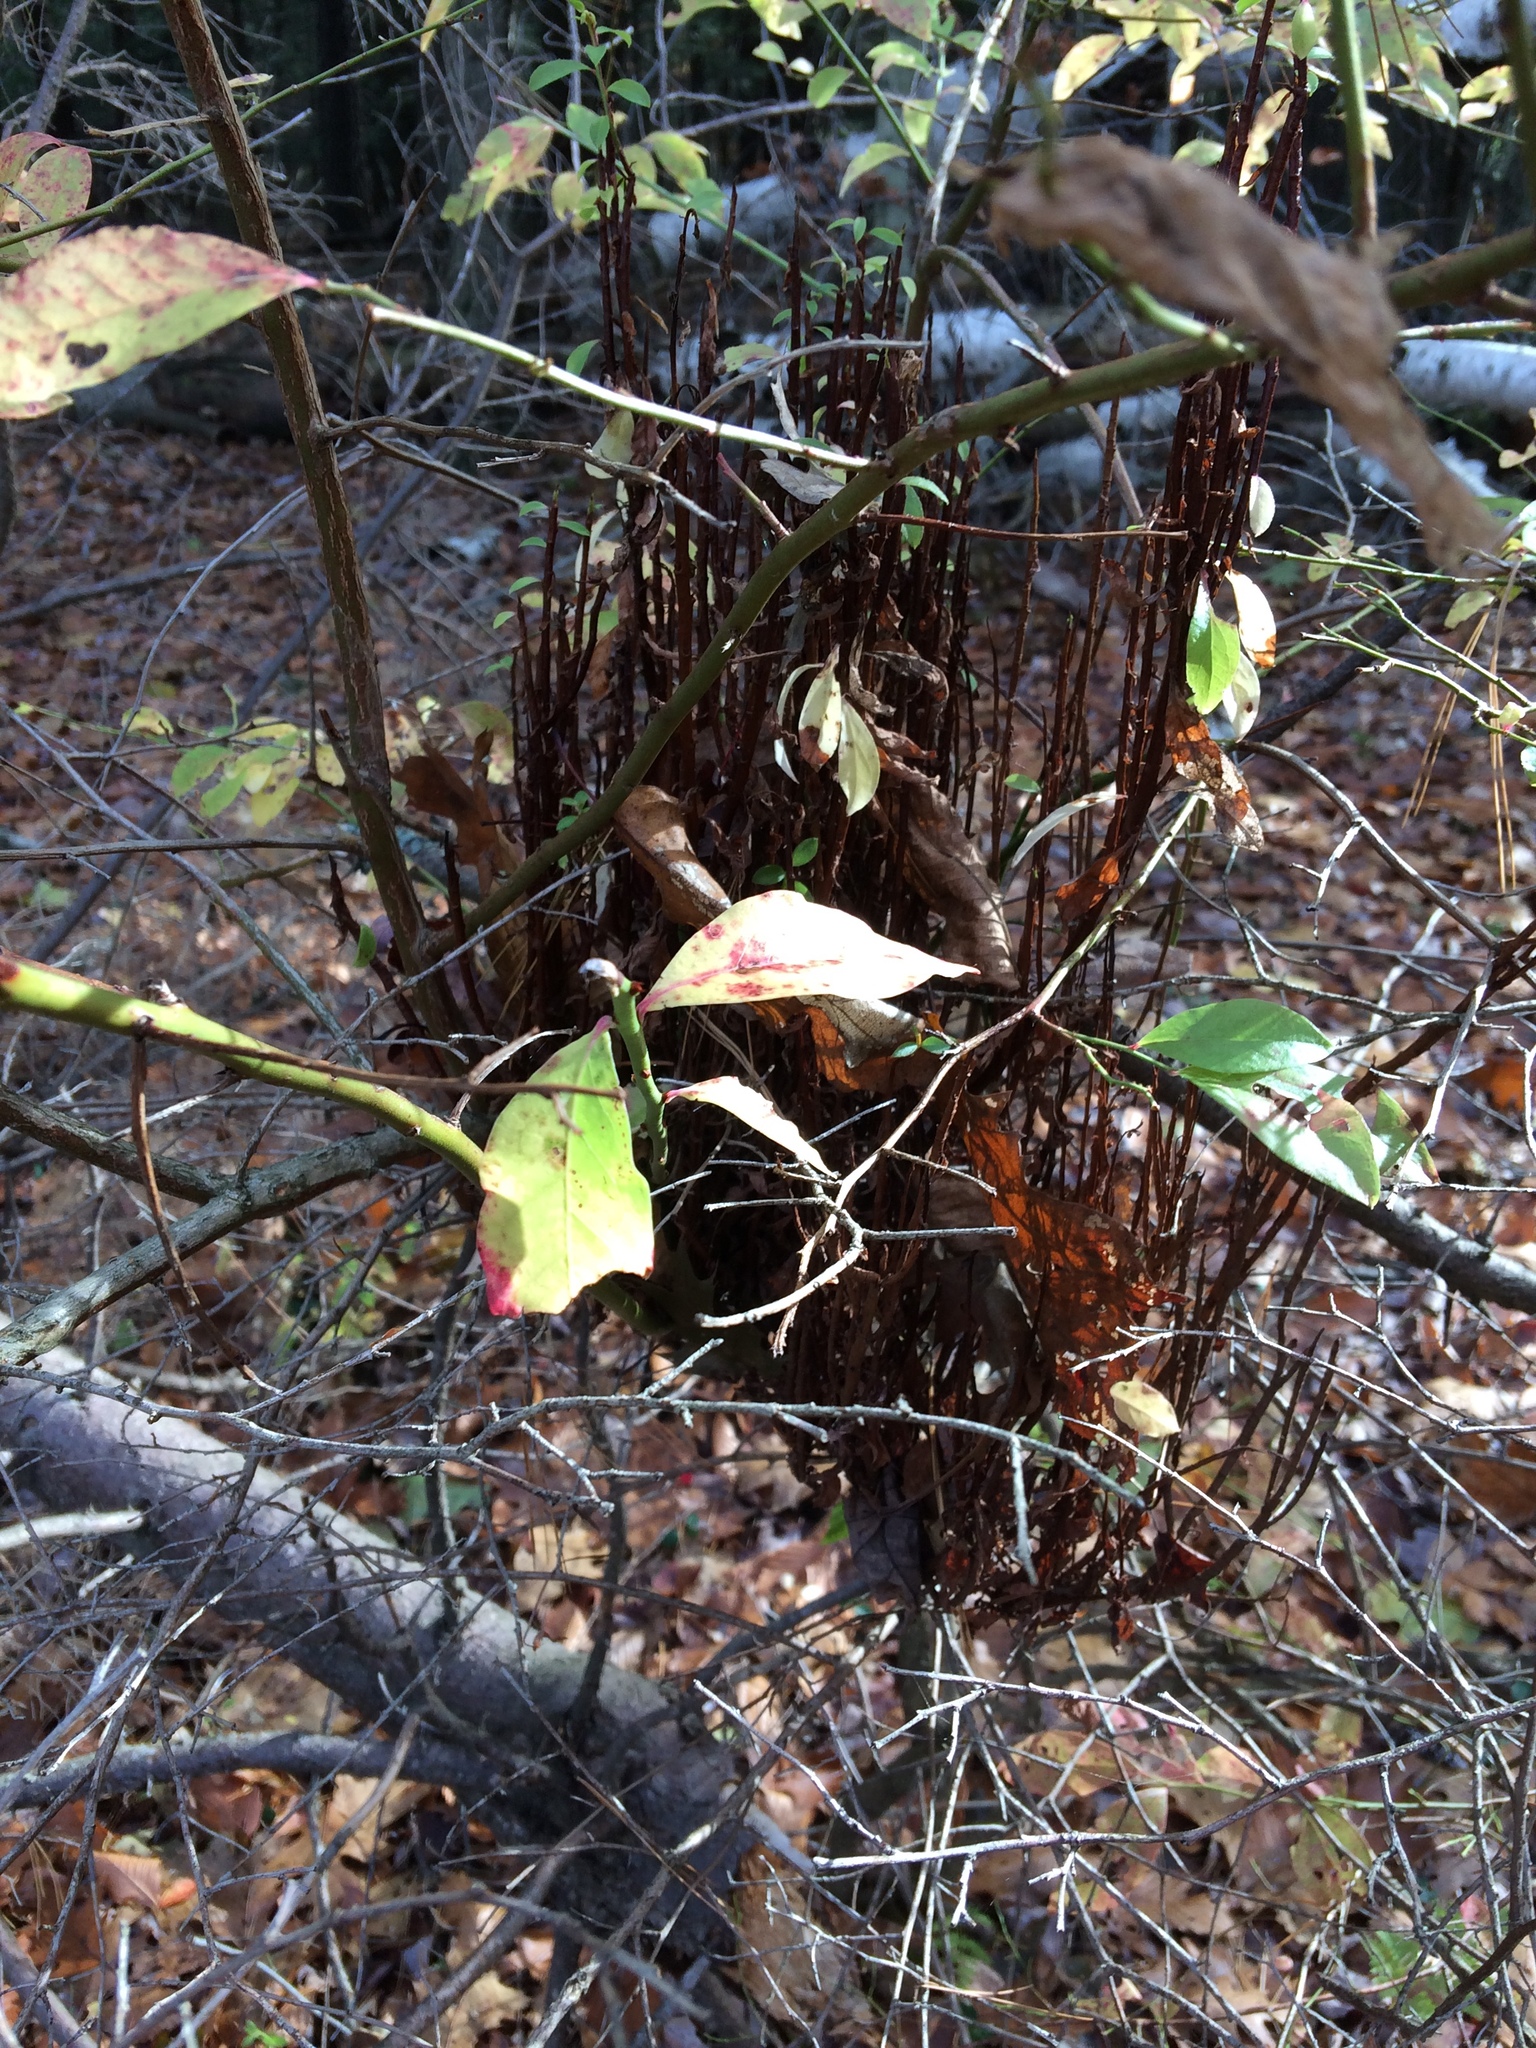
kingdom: Fungi
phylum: Basidiomycota
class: Pucciniomycetes
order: Pucciniales
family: Pucciniastraceae
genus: Calyptospora
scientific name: Calyptospora columnaris
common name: Huckleberry broom rust fungus
